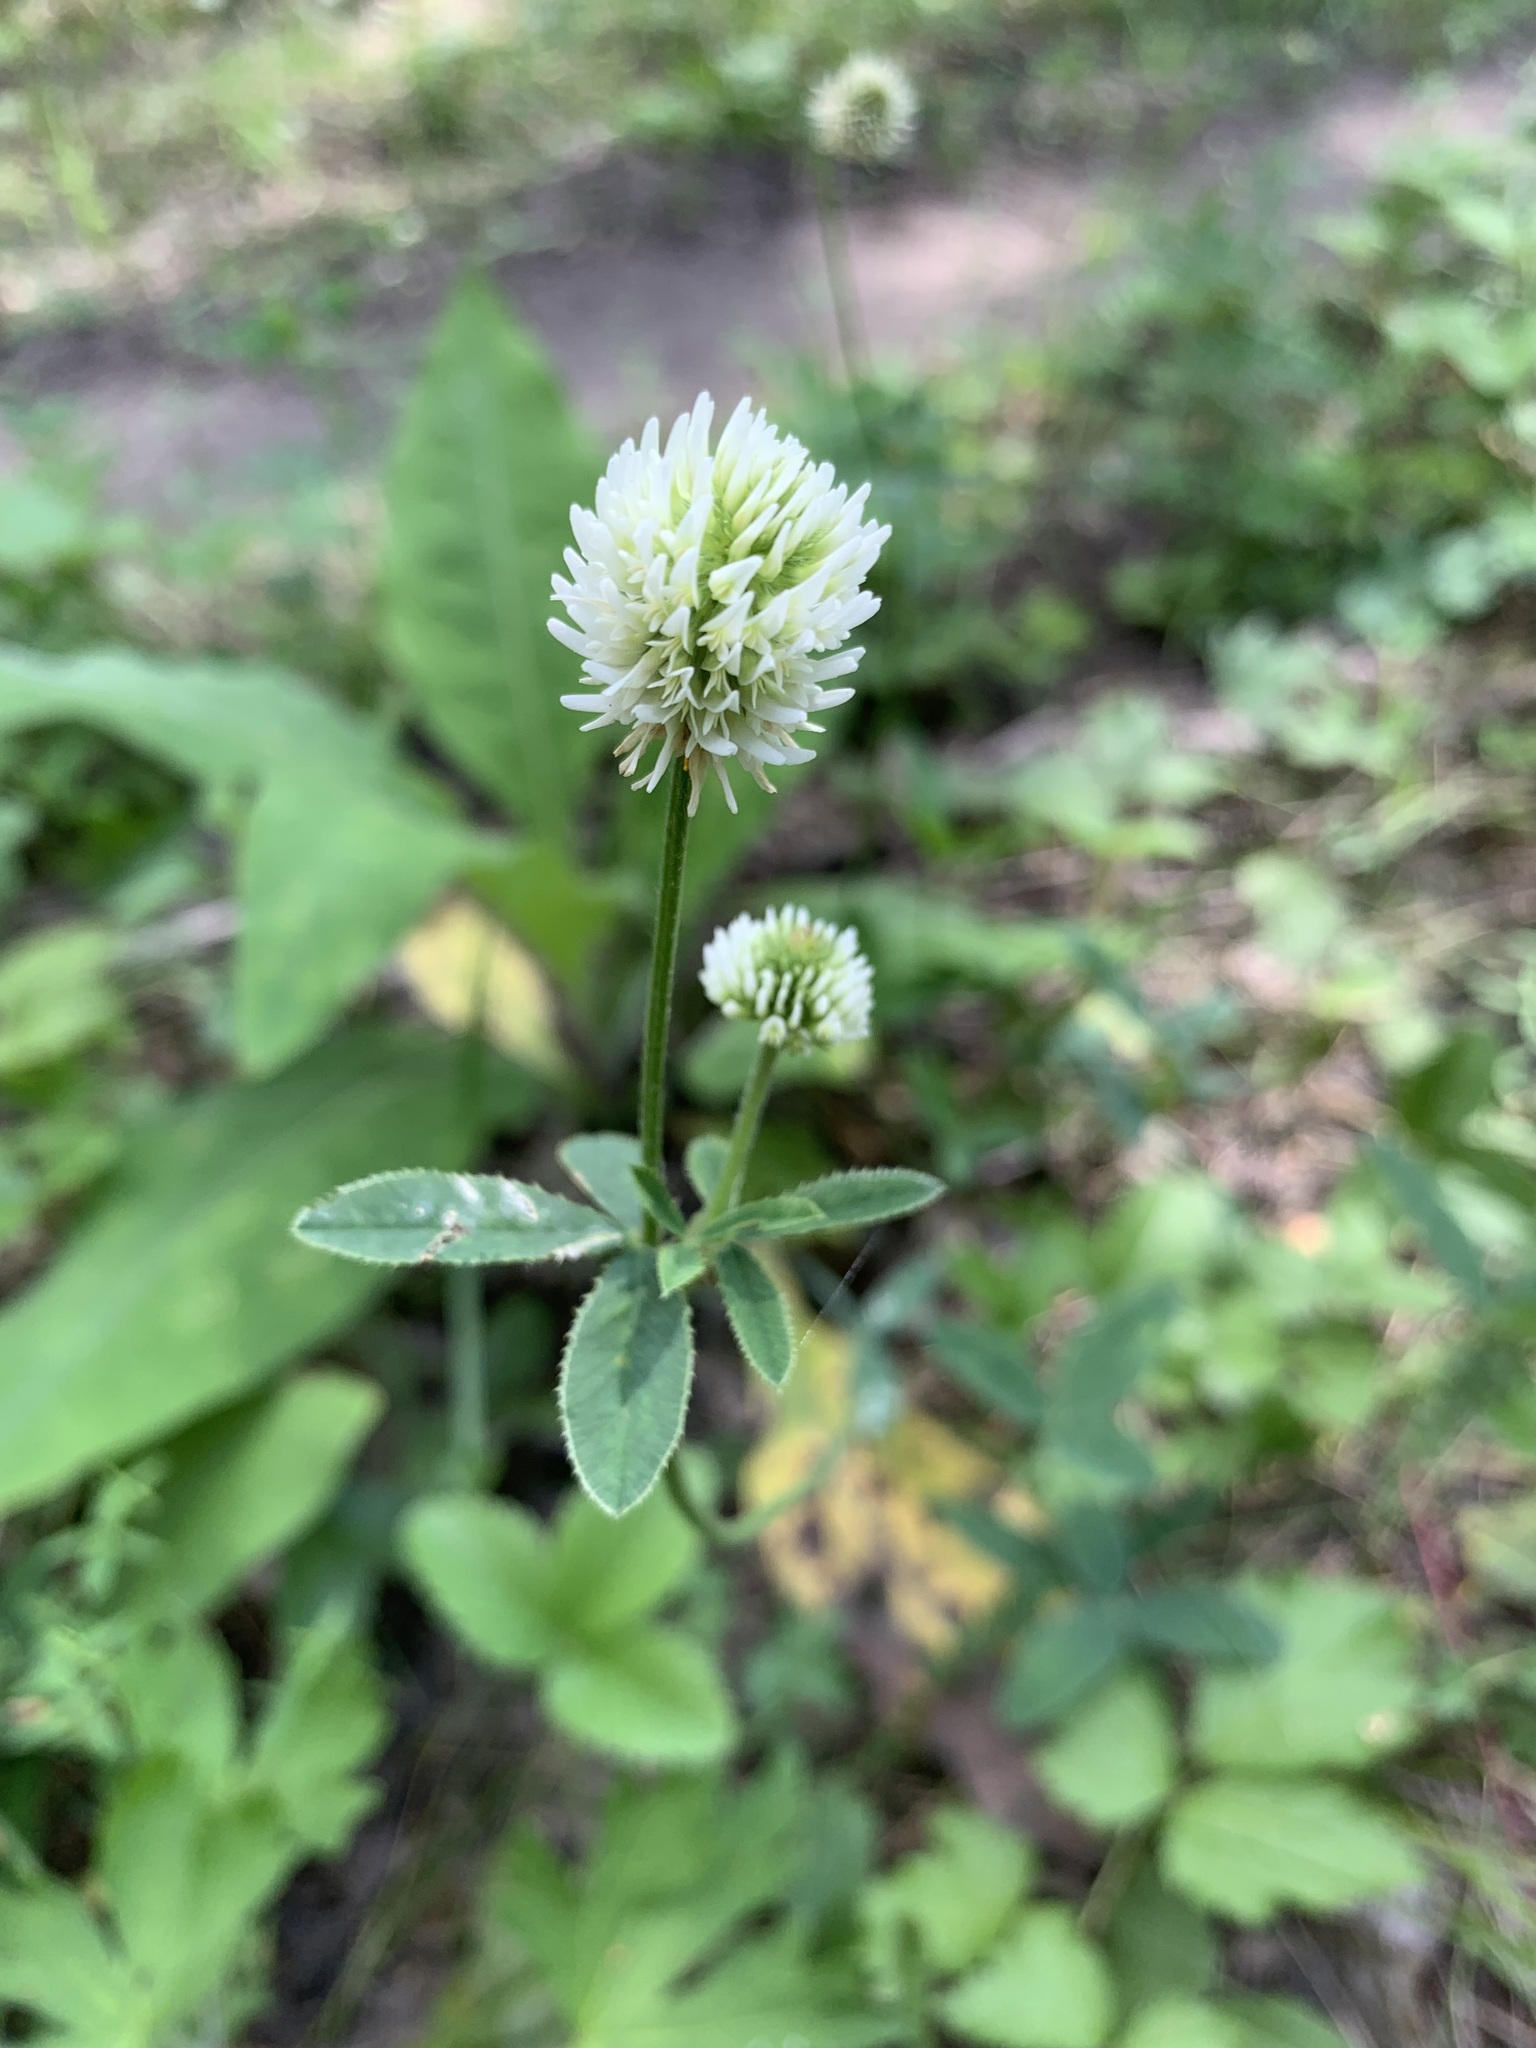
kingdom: Plantae
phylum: Tracheophyta
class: Magnoliopsida
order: Fabales
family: Fabaceae
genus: Trifolium
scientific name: Trifolium montanum
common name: Mountain clover
